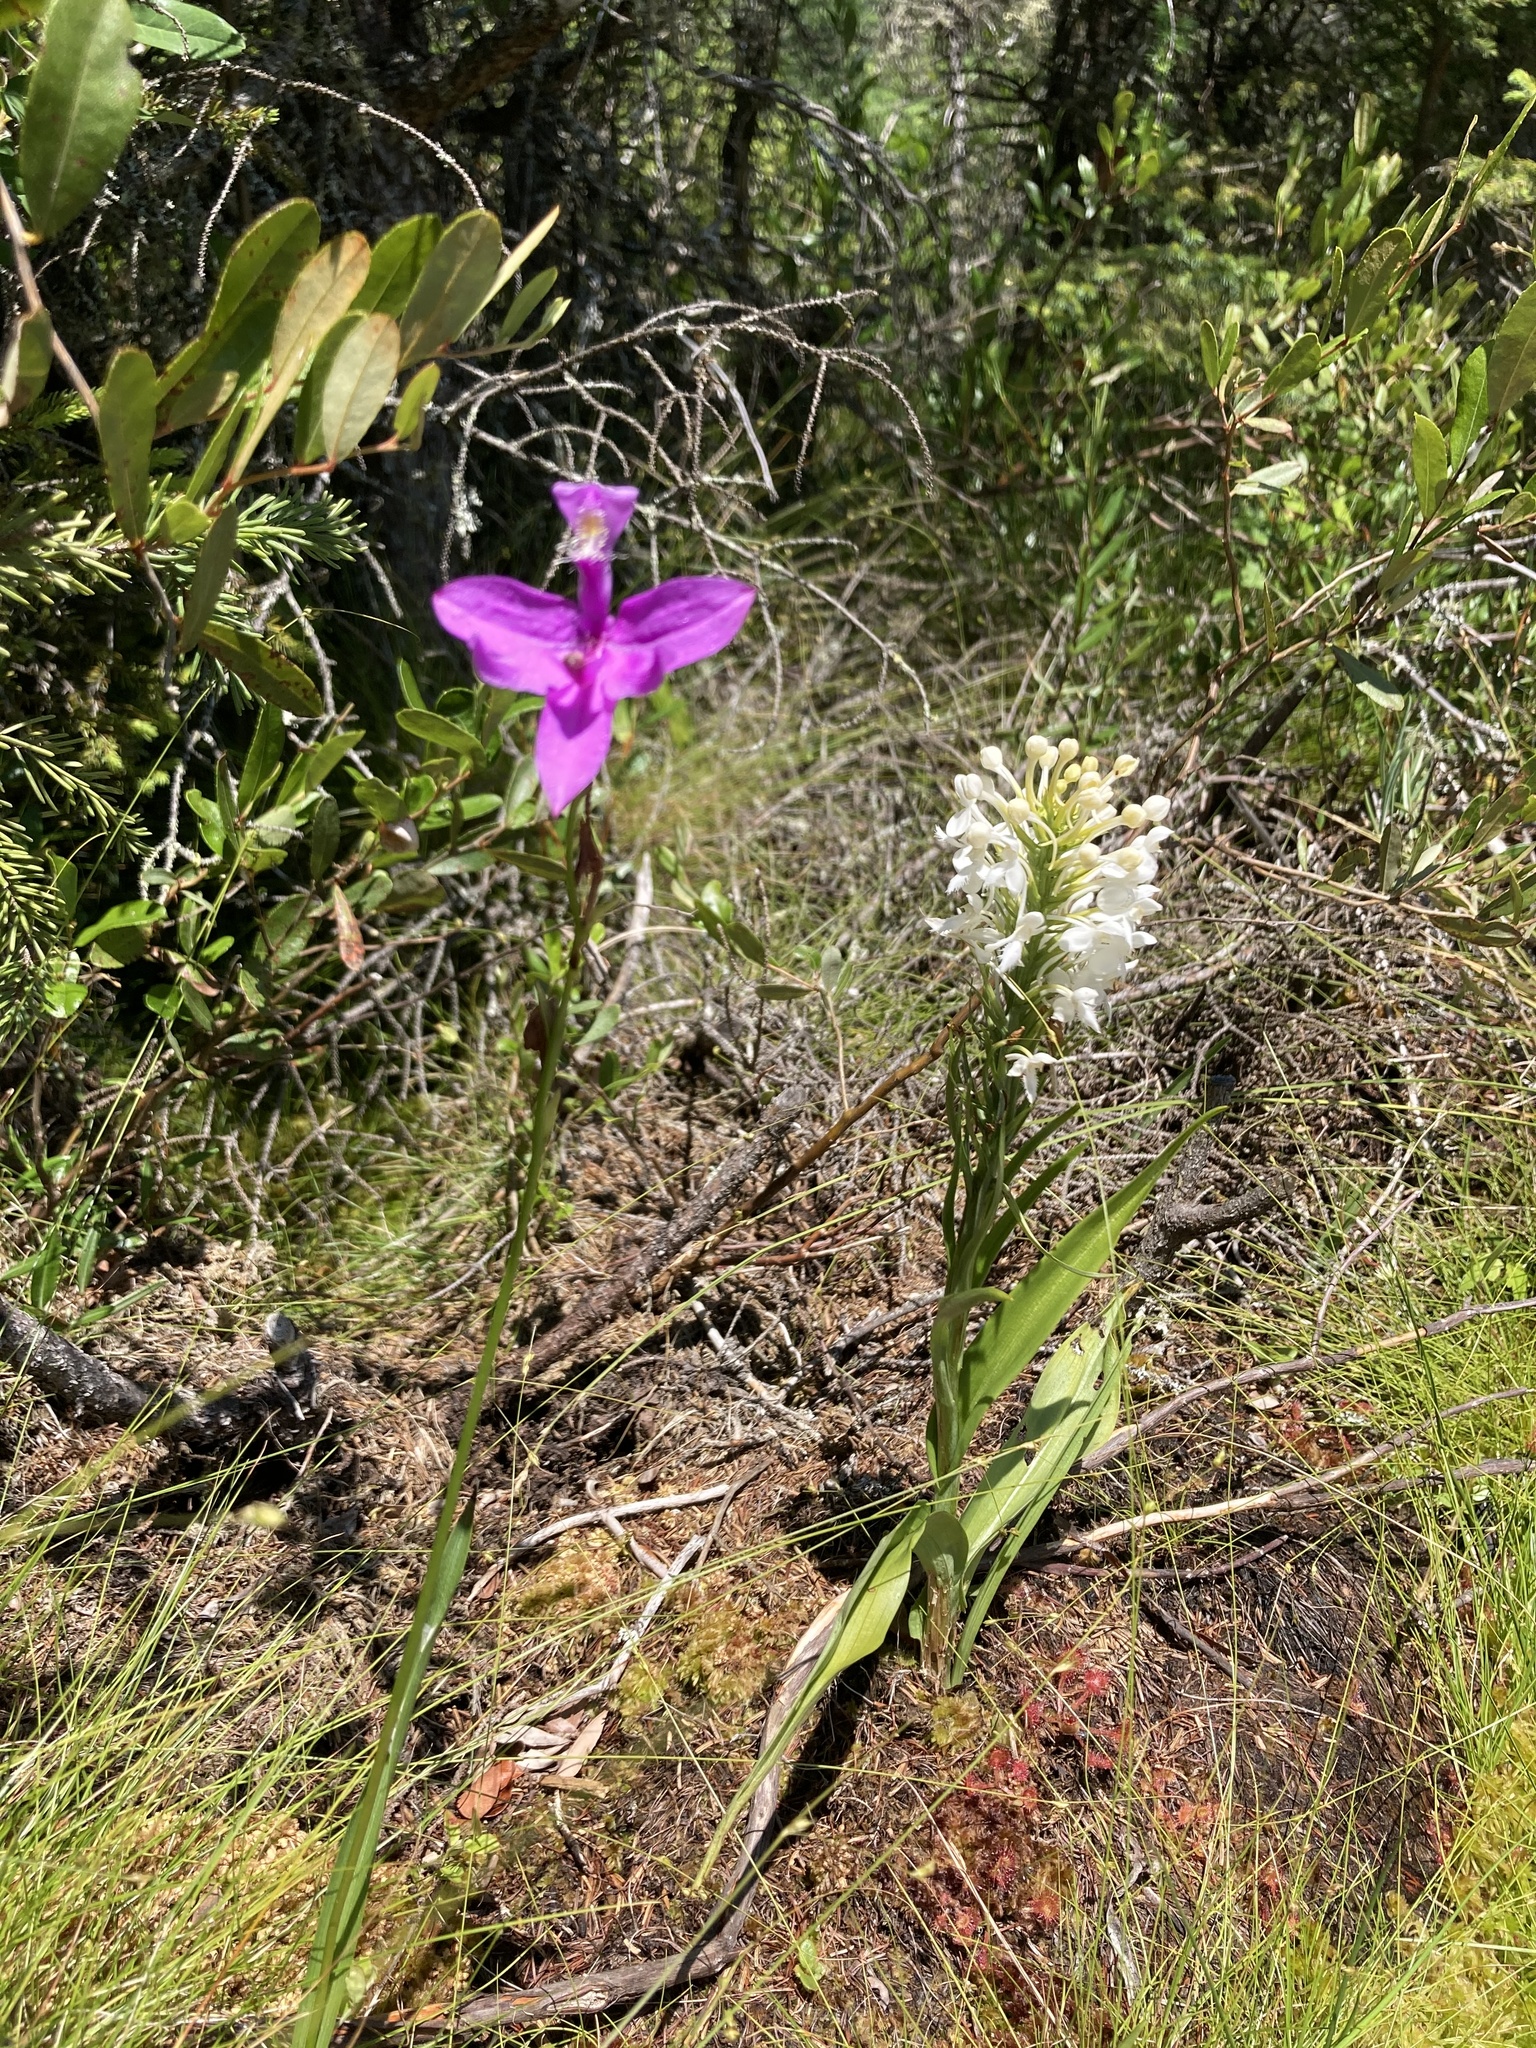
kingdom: Plantae
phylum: Tracheophyta
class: Liliopsida
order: Asparagales
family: Orchidaceae
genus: Platanthera
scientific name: Platanthera blephariglottis
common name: White fringed orchid
